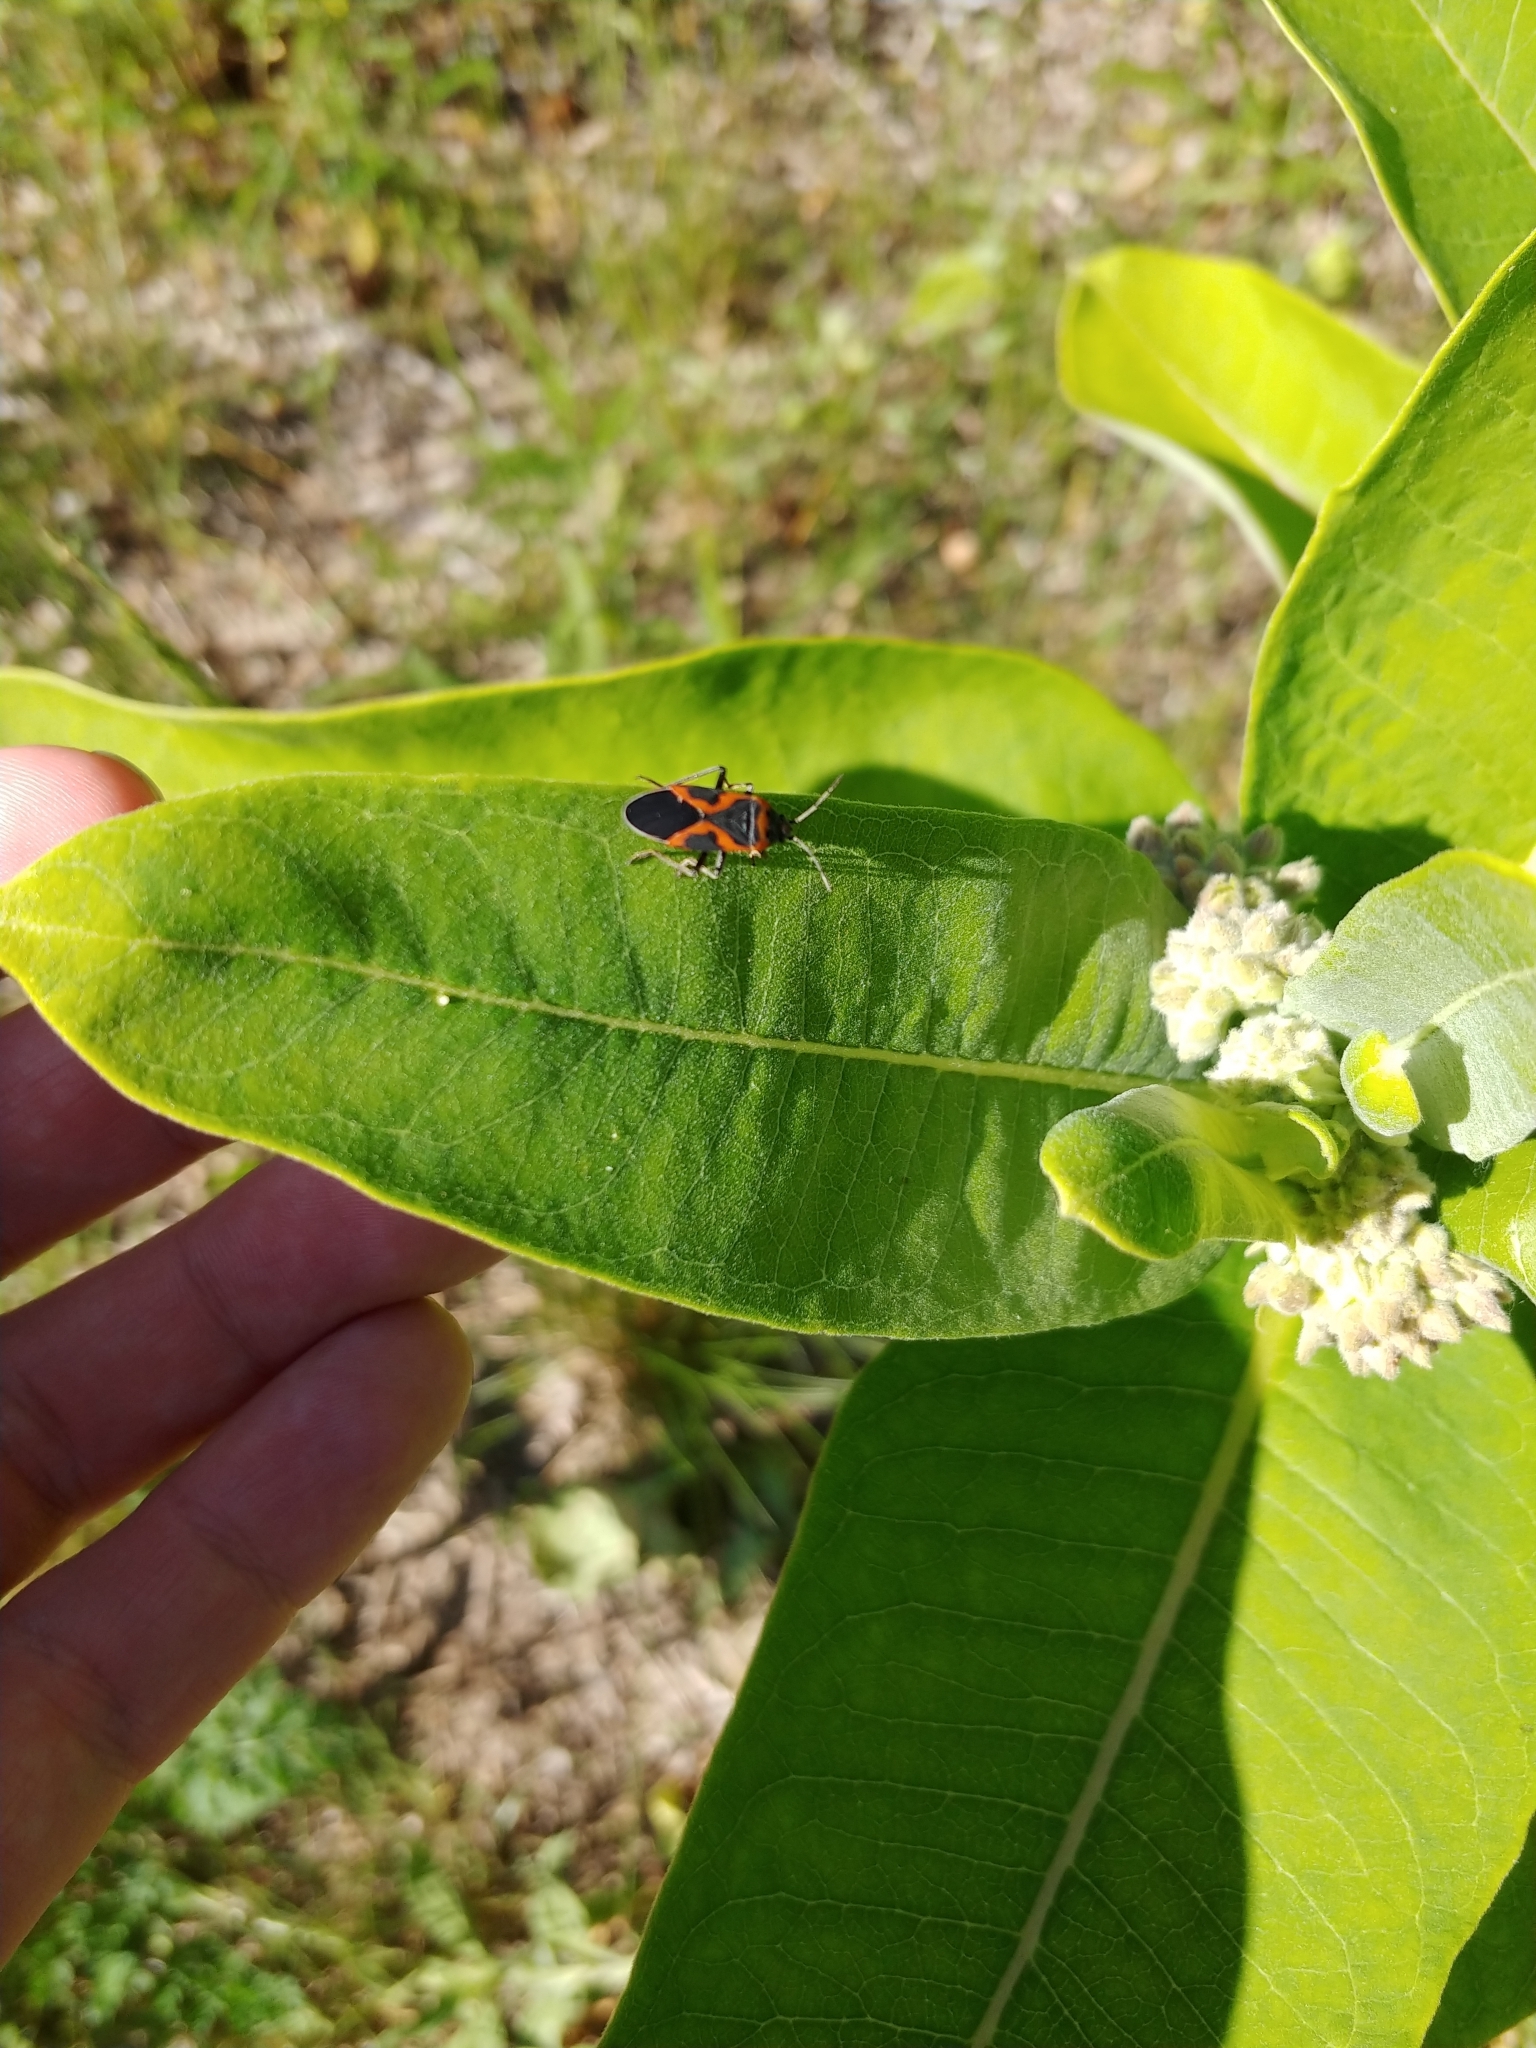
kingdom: Animalia
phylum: Arthropoda
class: Insecta
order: Hemiptera
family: Lygaeidae
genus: Lygaeus
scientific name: Lygaeus kalmii
